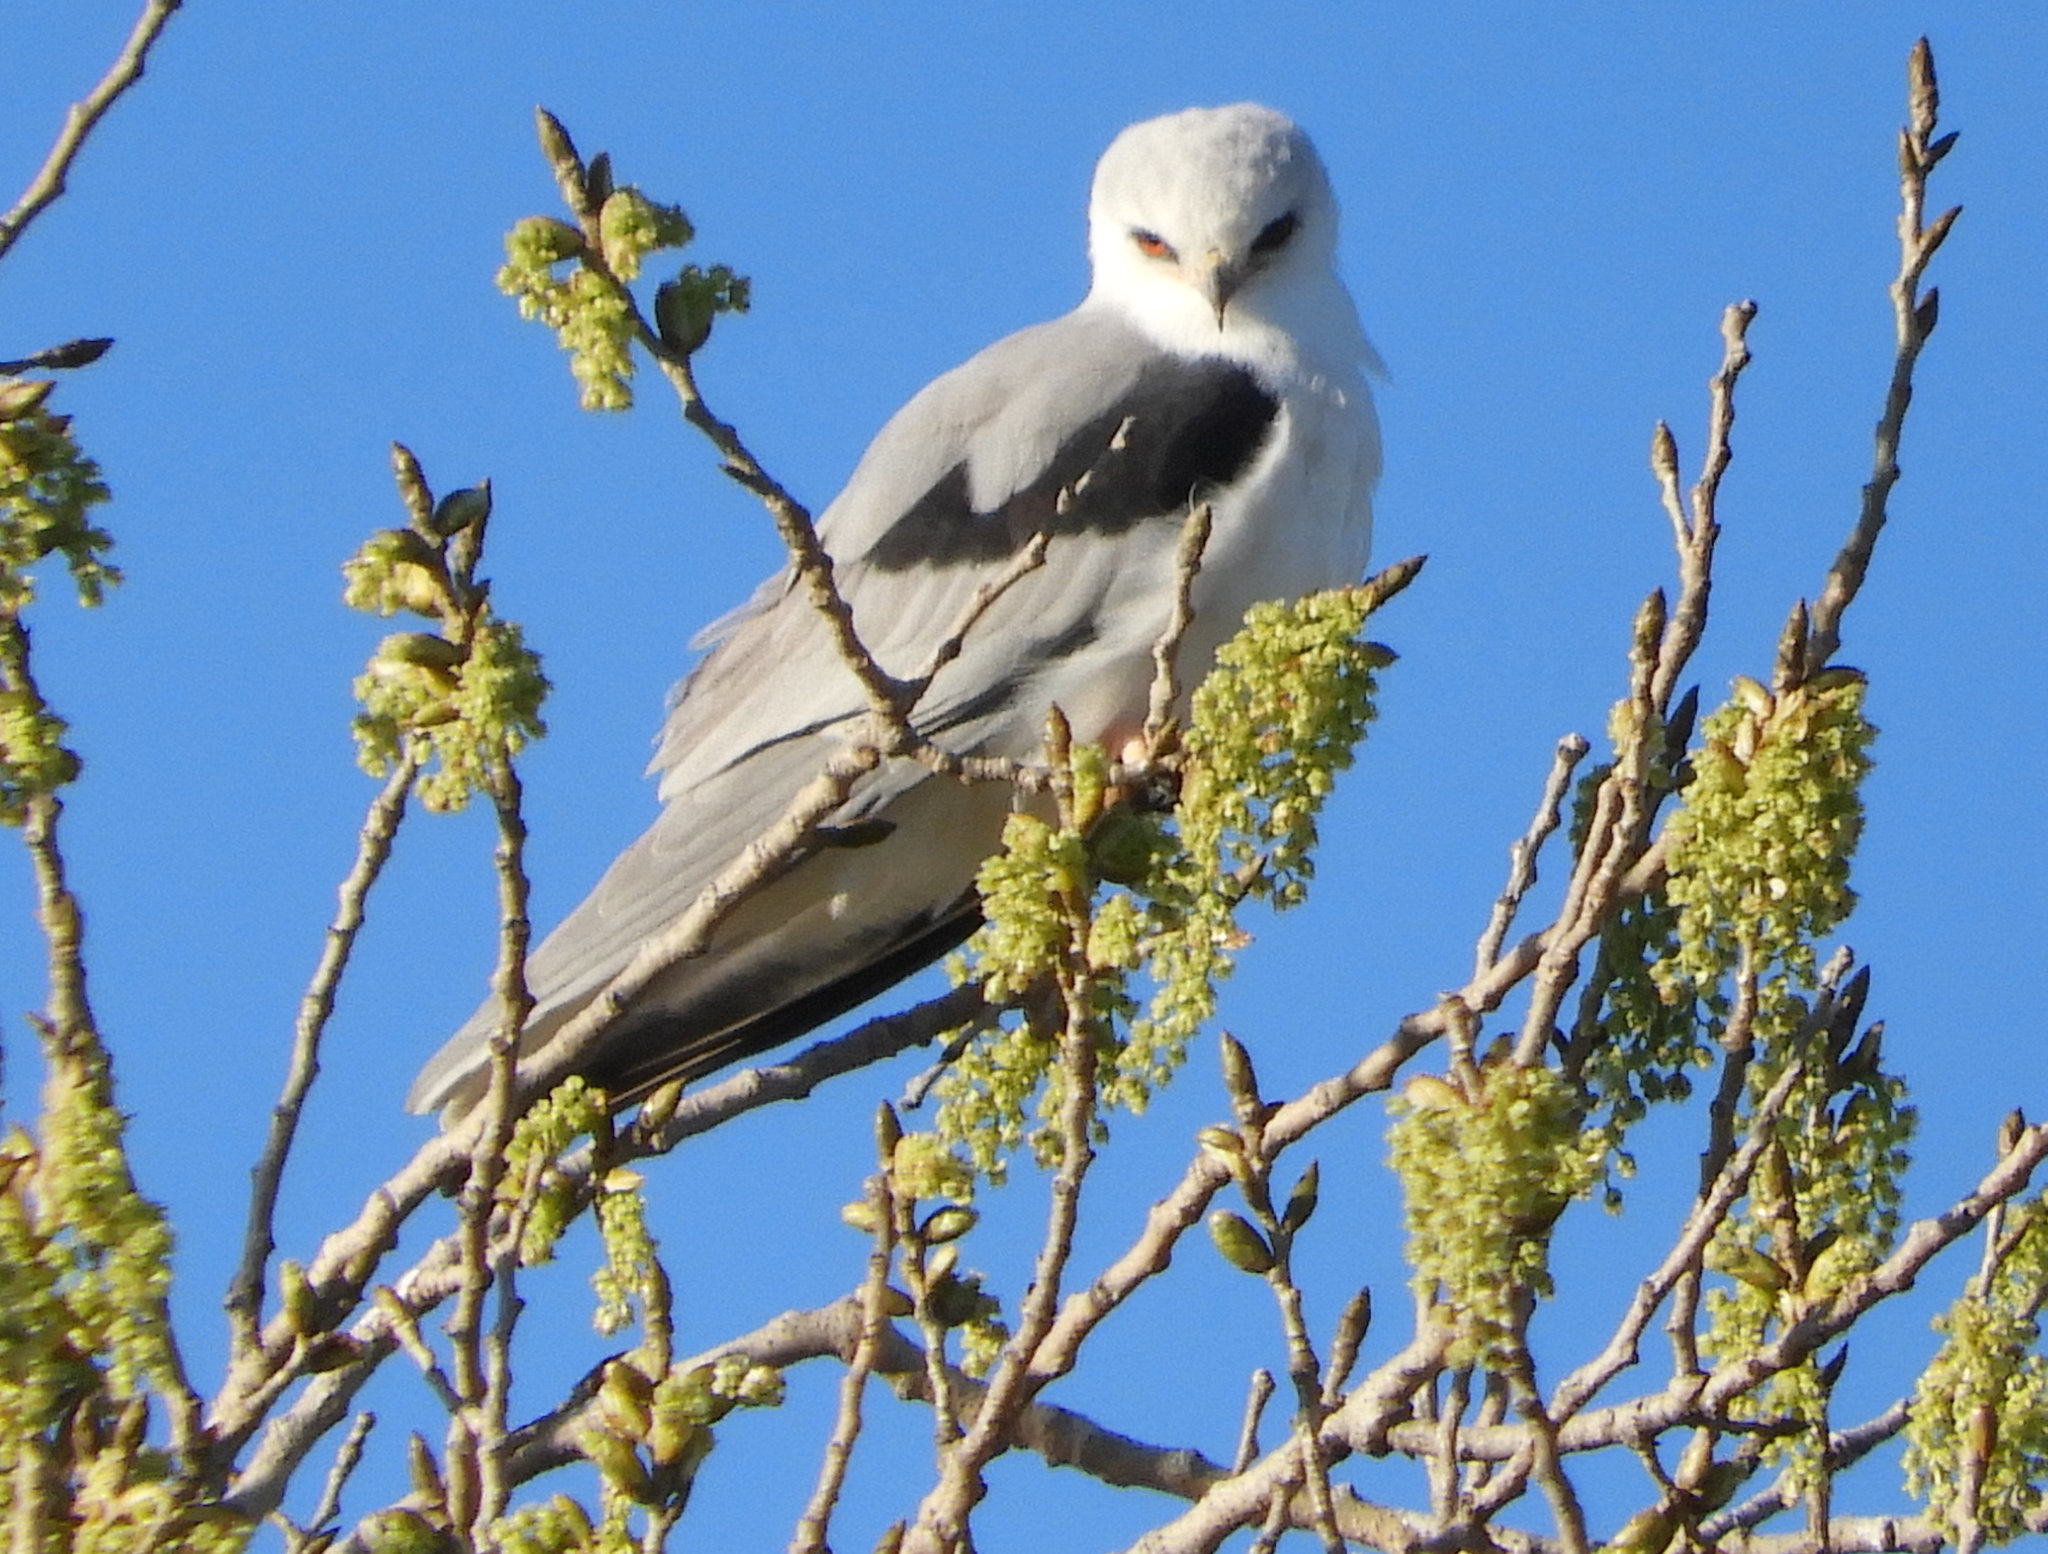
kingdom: Animalia
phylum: Chordata
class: Aves
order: Accipitriformes
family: Accipitridae
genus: Elanus
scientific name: Elanus leucurus
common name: White-tailed kite
